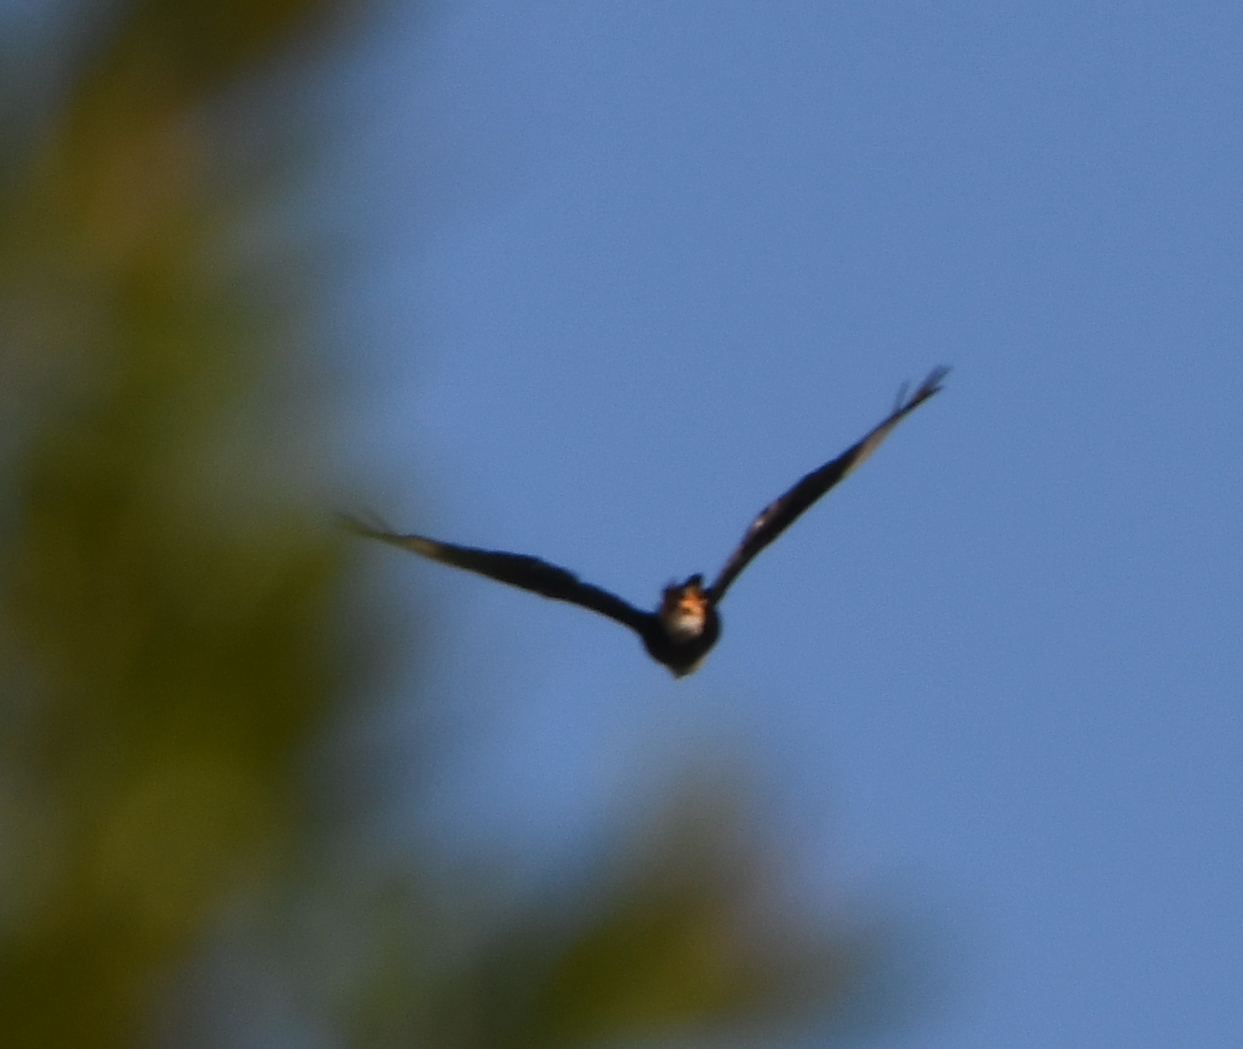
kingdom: Animalia
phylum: Chordata
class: Aves
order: Falconiformes
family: Falconidae
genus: Caracara
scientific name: Caracara plancus
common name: Southern caracara
